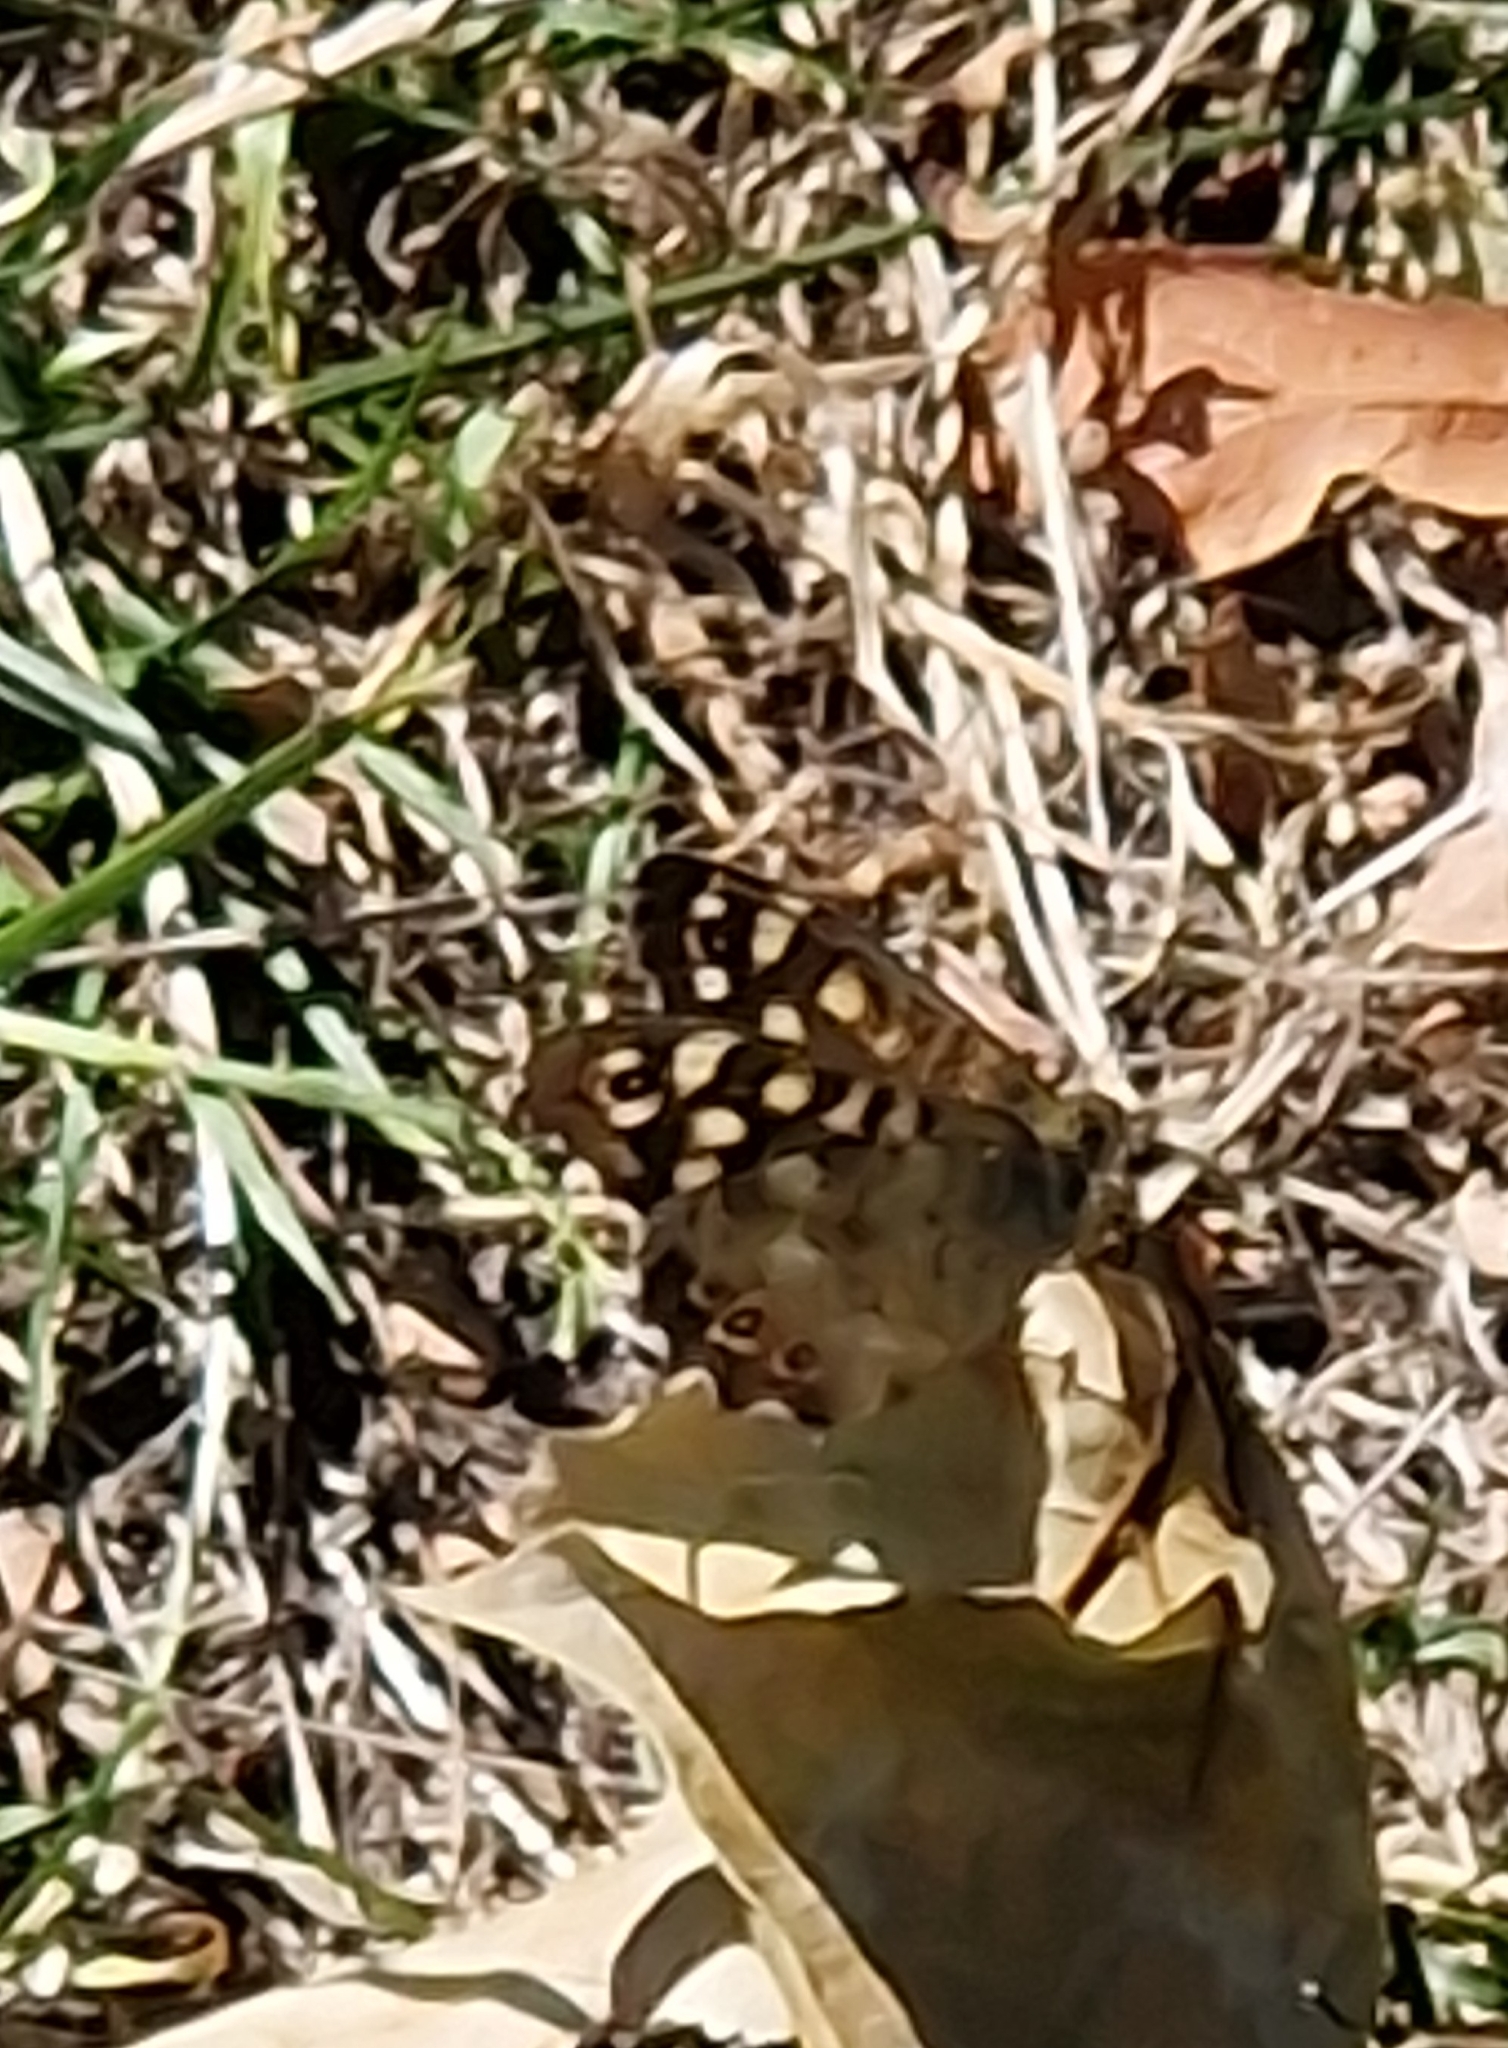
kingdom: Animalia
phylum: Arthropoda
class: Insecta
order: Lepidoptera
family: Nymphalidae
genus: Pararge
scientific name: Pararge aegeria
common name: Speckled wood
